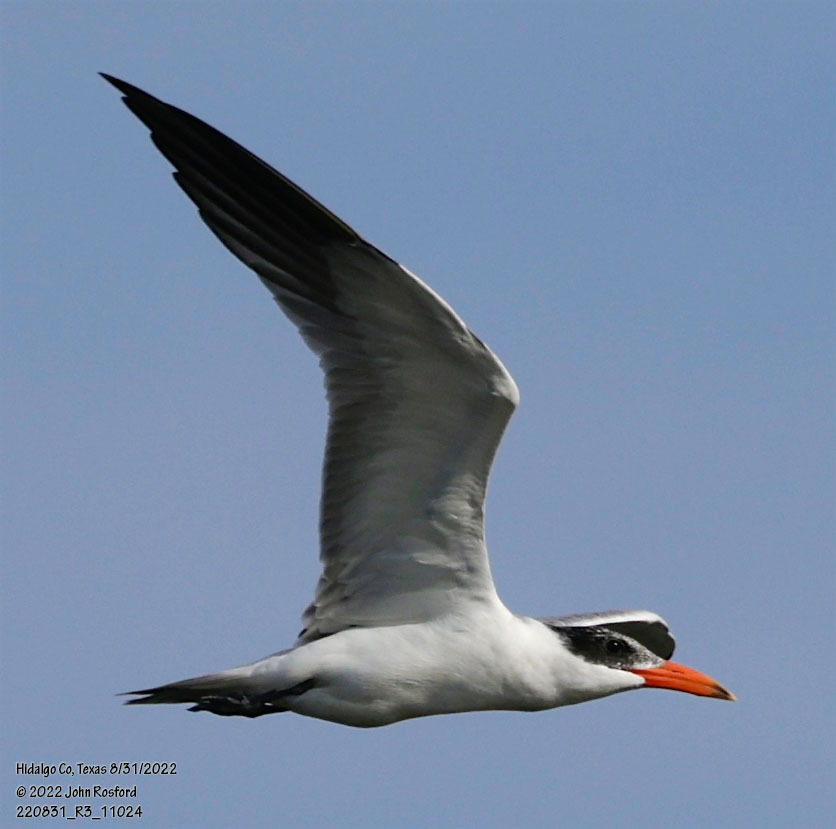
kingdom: Animalia
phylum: Chordata
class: Aves
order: Charadriiformes
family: Laridae
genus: Hydroprogne
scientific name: Hydroprogne caspia
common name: Caspian tern
